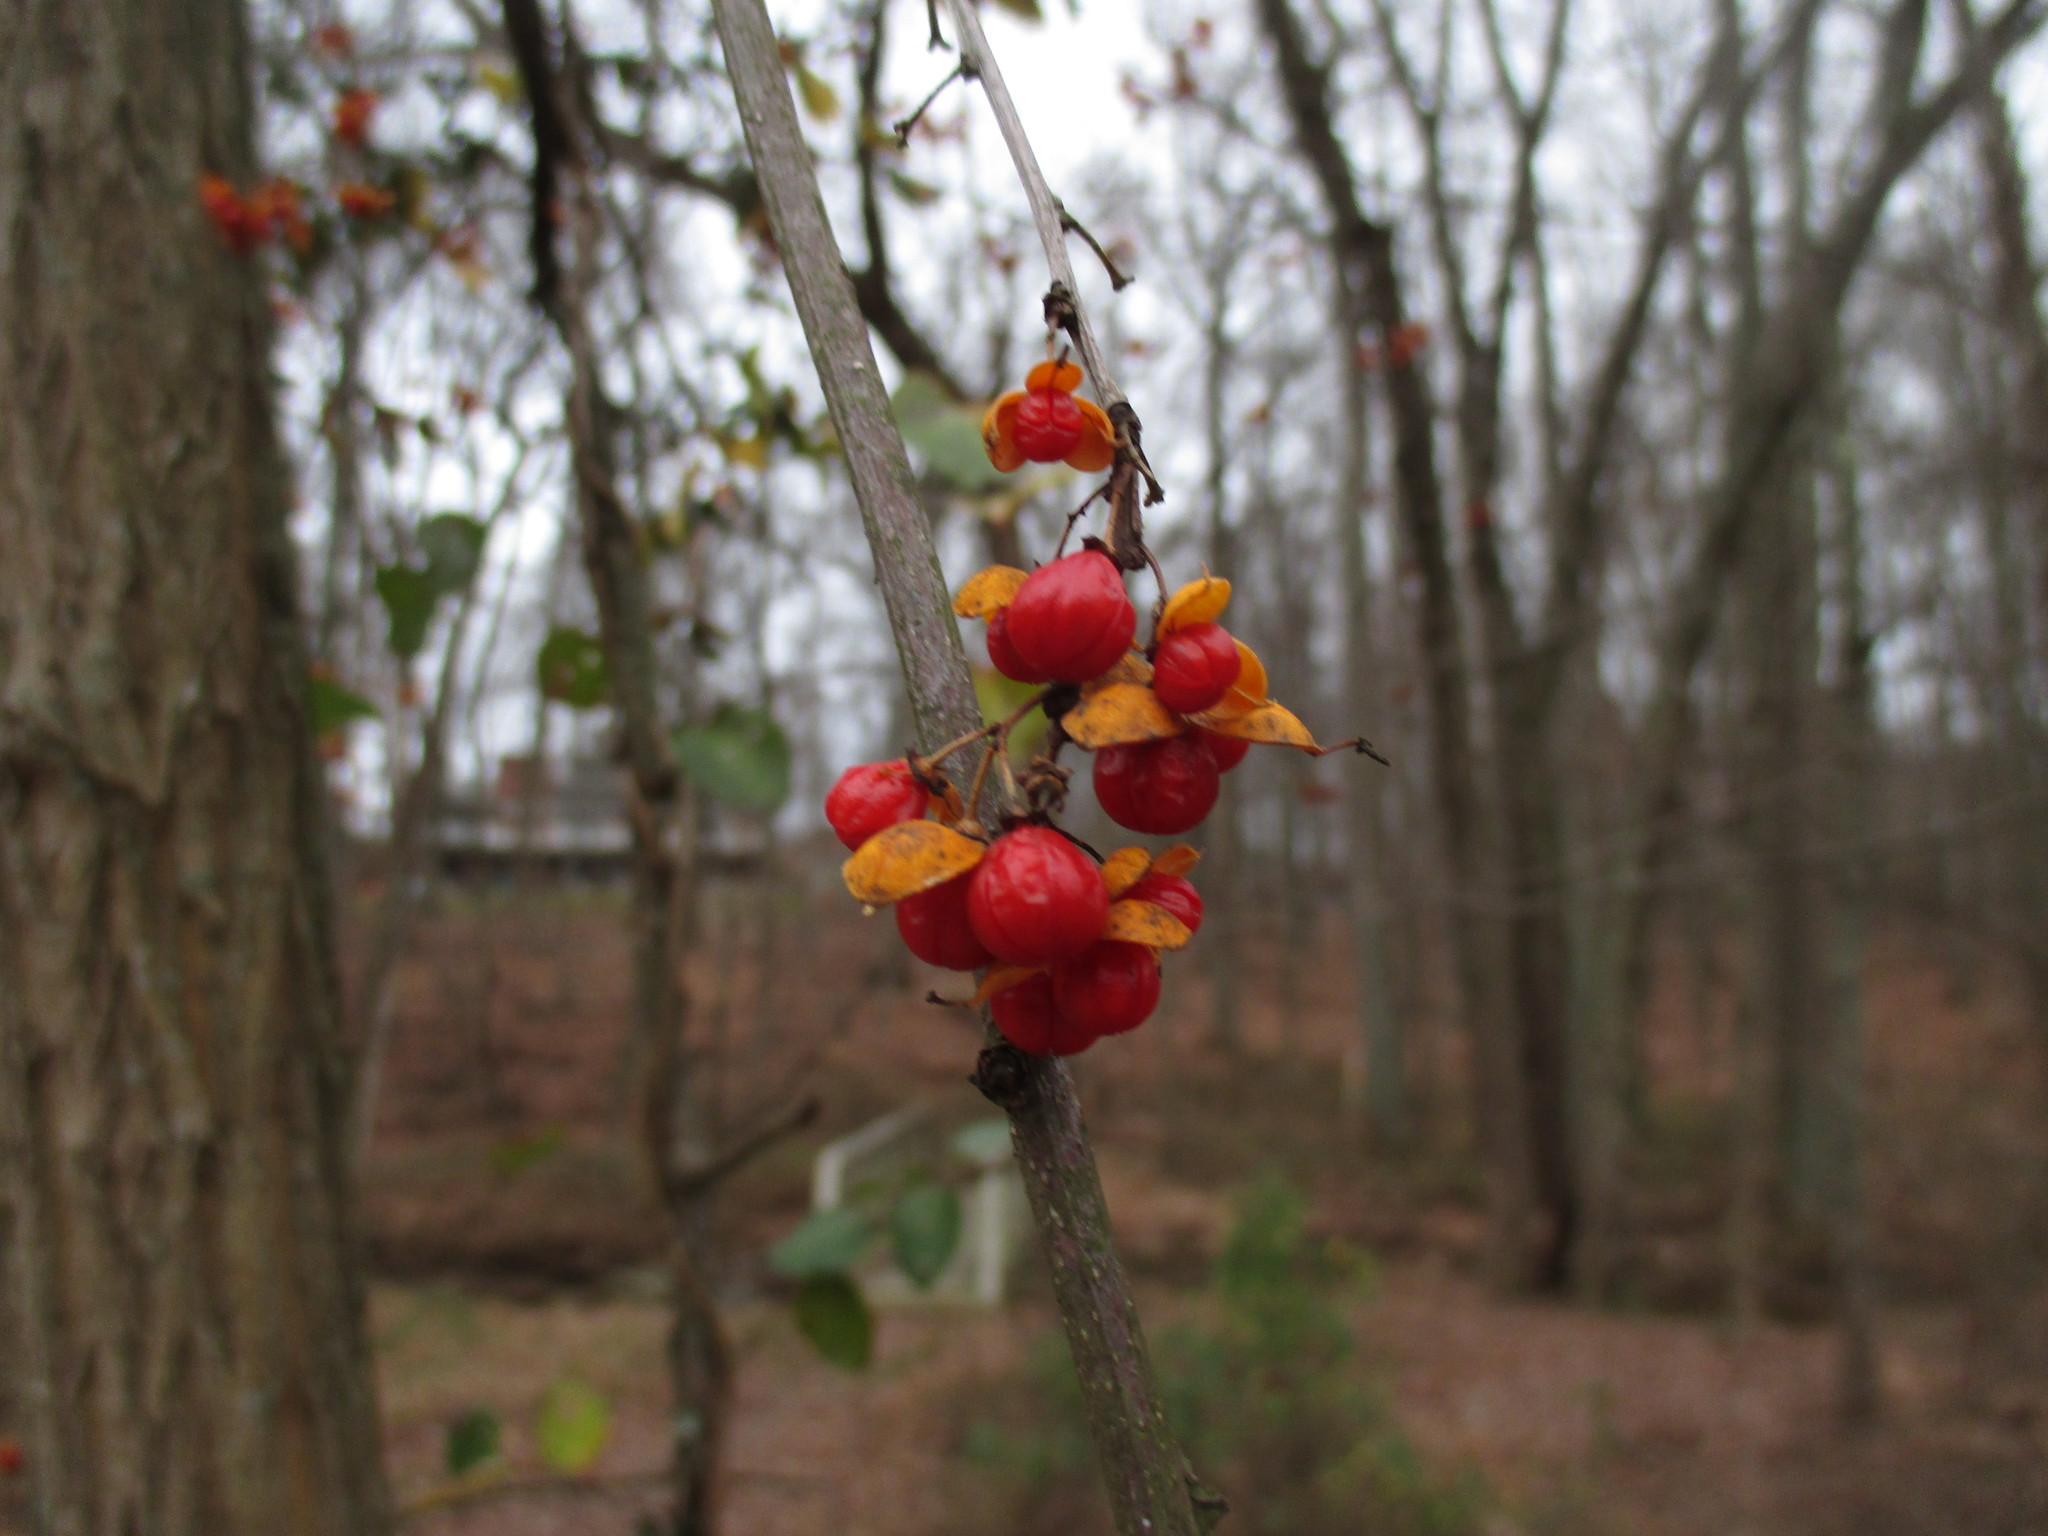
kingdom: Plantae
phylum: Tracheophyta
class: Magnoliopsida
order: Celastrales
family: Celastraceae
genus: Celastrus
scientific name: Celastrus orbiculatus
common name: Oriental bittersweet
